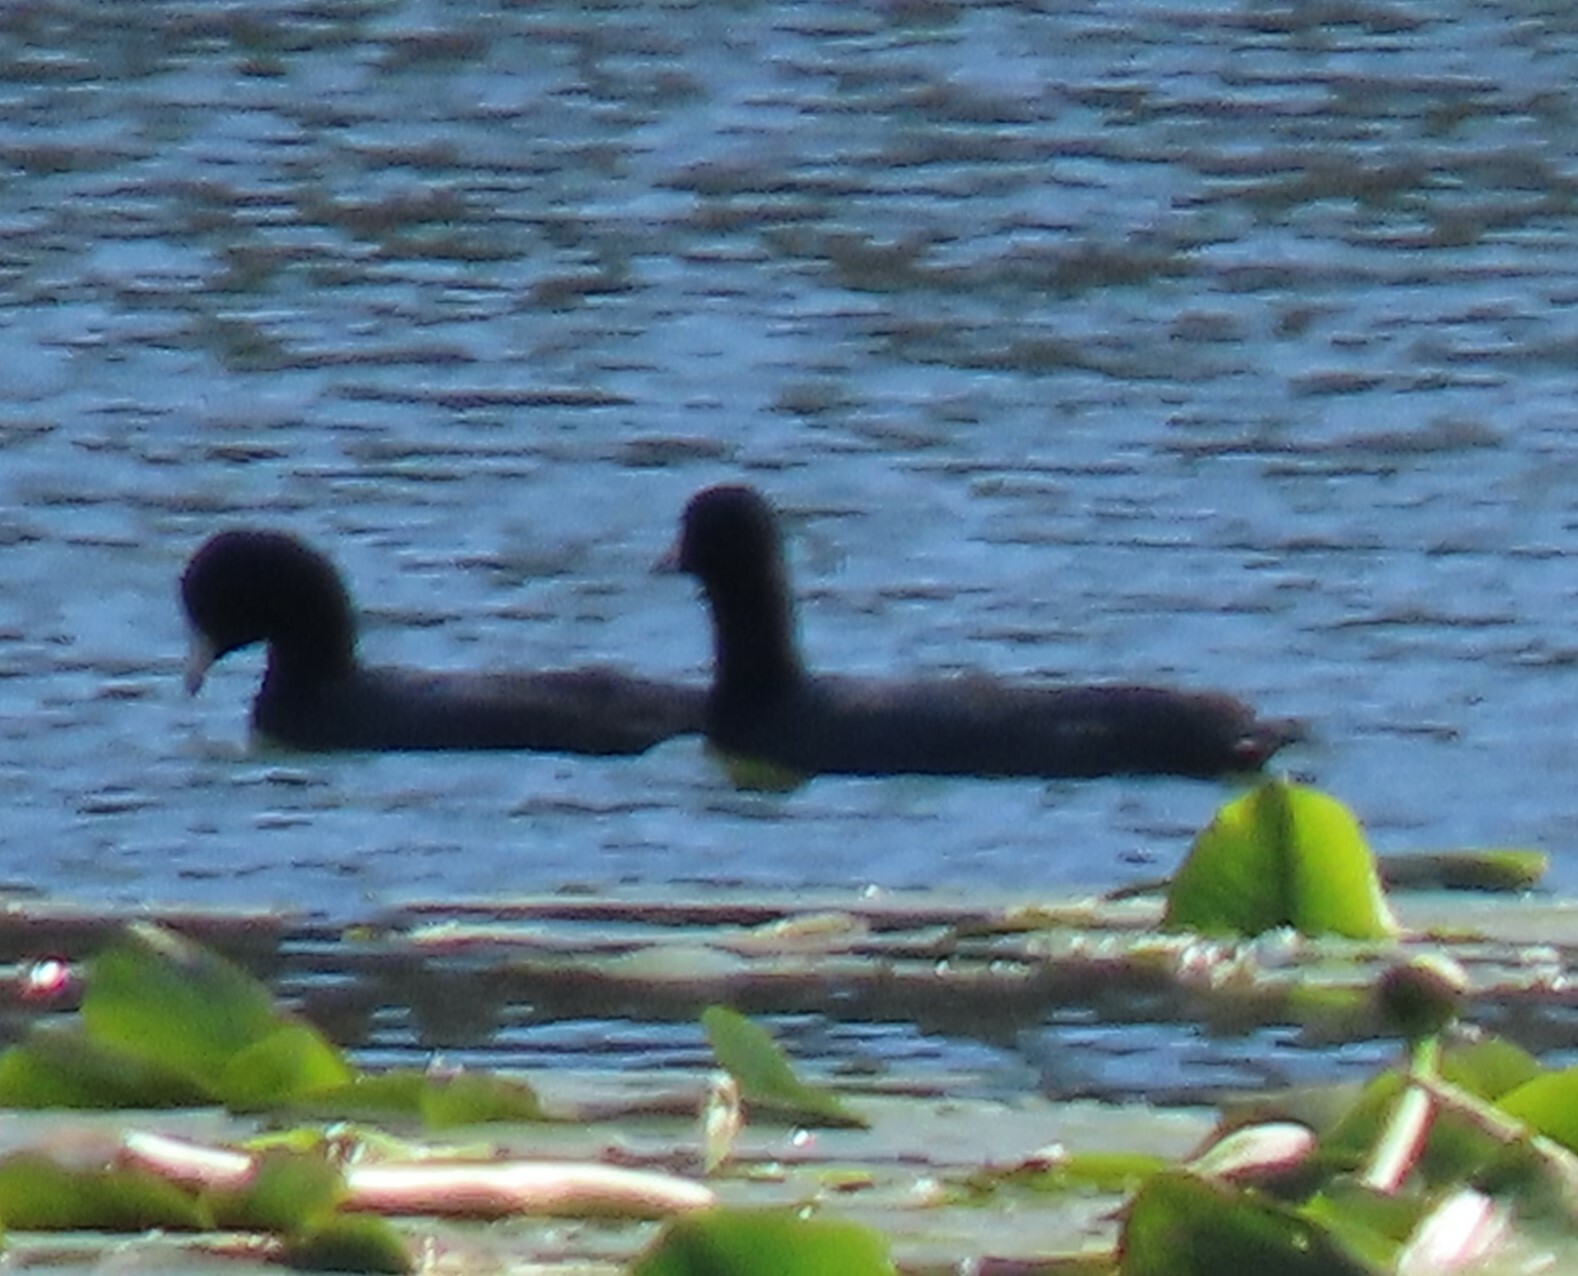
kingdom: Animalia
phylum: Chordata
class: Aves
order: Gruiformes
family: Rallidae
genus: Fulica
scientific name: Fulica americana
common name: American coot
